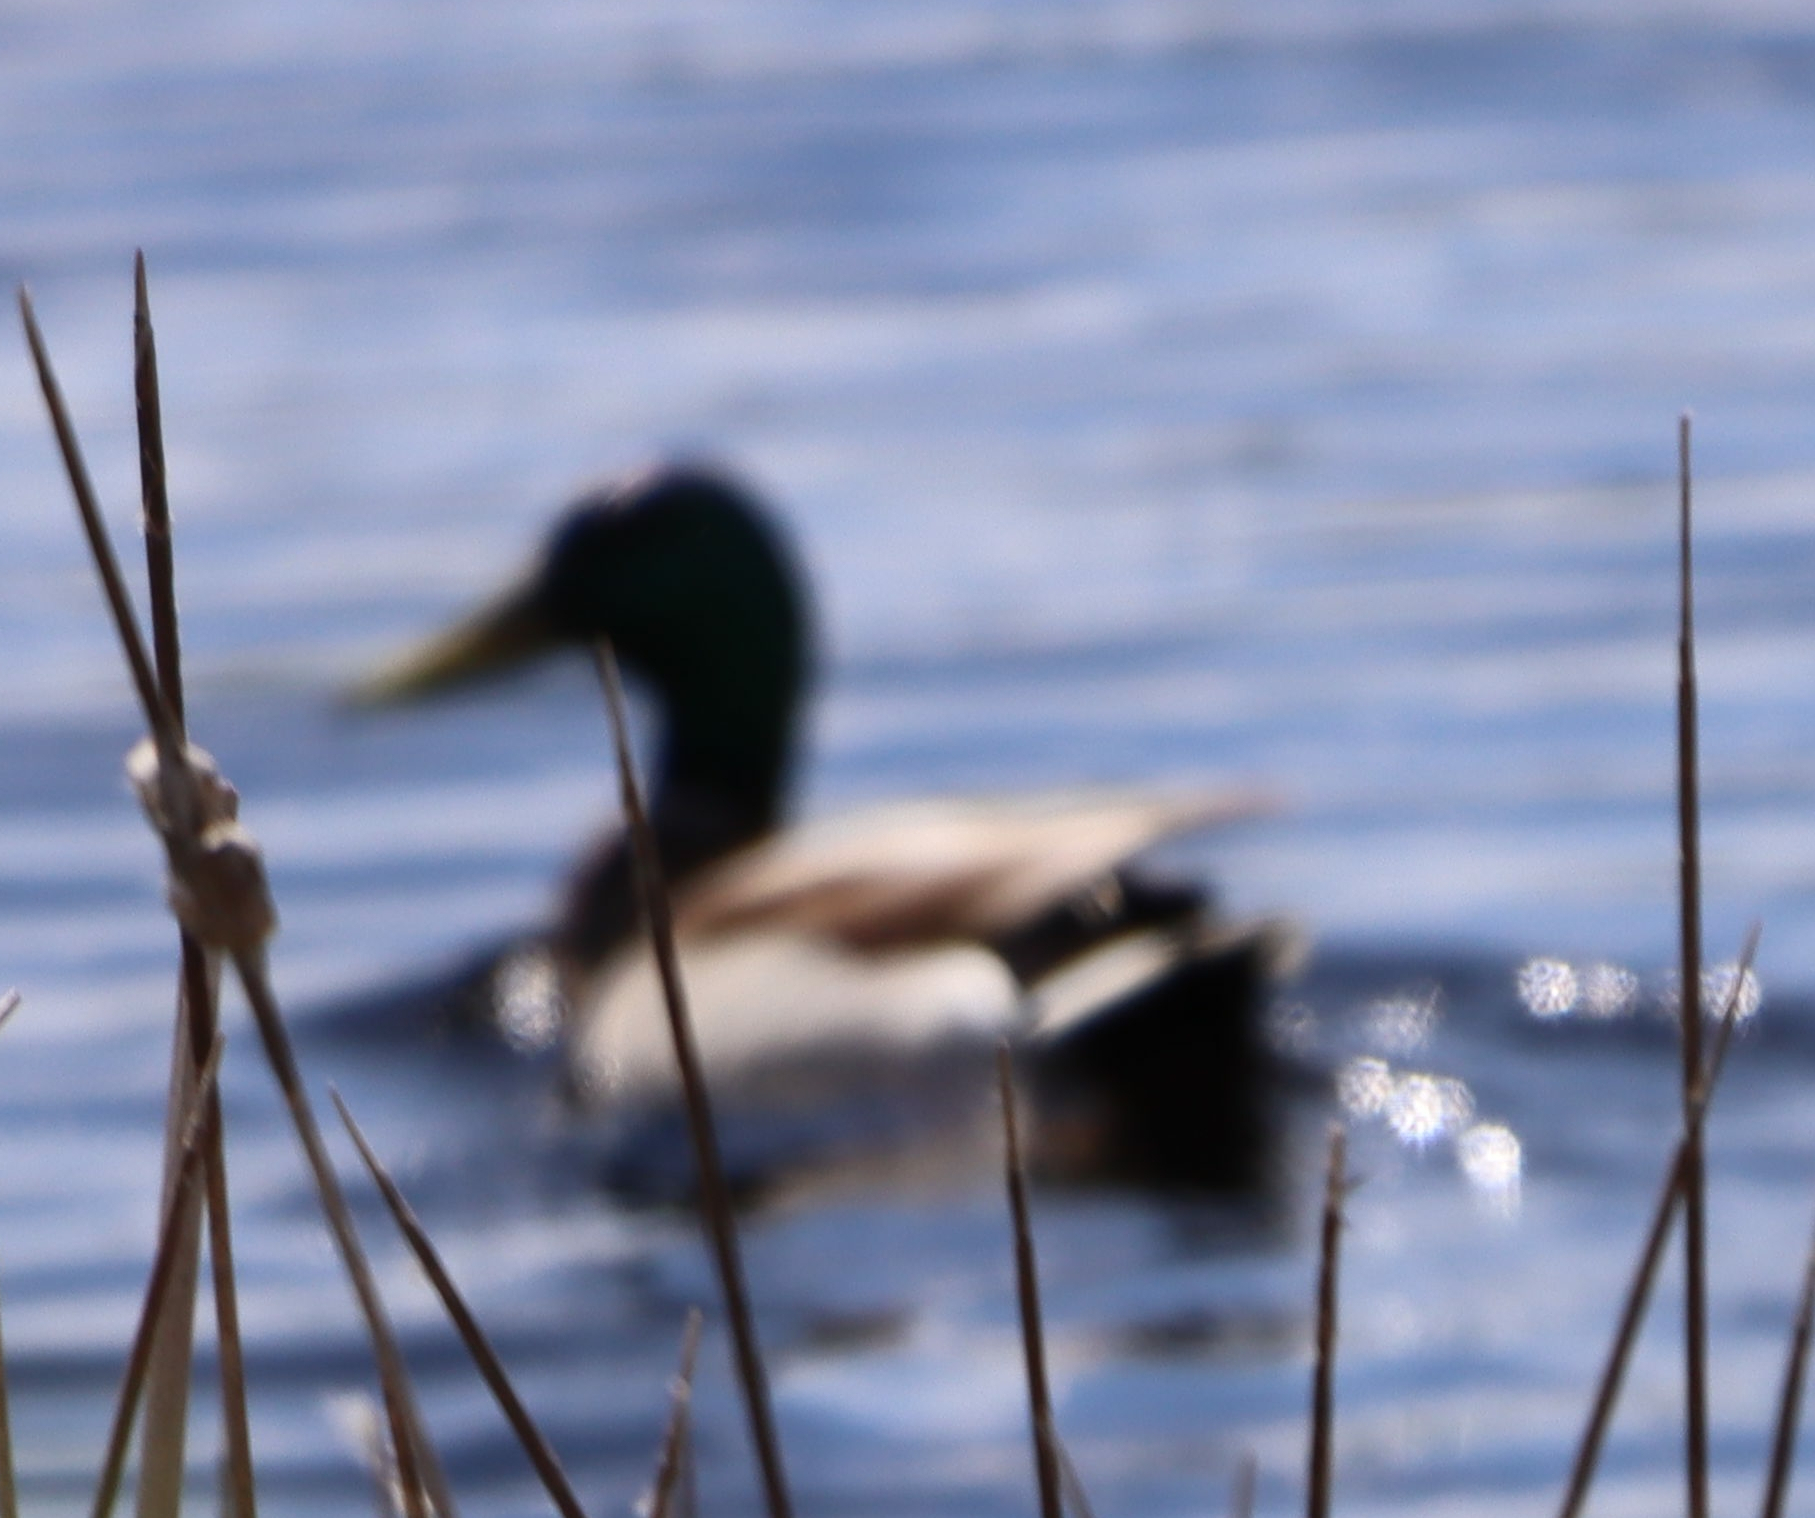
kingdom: Animalia
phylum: Chordata
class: Aves
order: Anseriformes
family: Anatidae
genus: Anas
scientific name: Anas platyrhynchos
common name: Mallard
